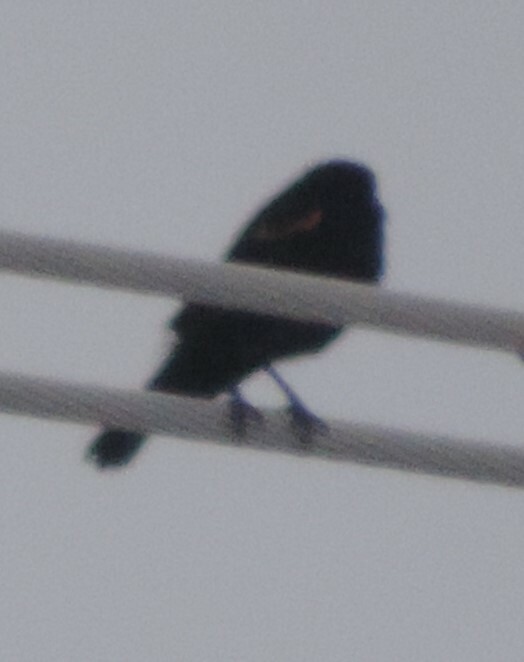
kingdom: Animalia
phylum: Chordata
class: Aves
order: Passeriformes
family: Icteridae
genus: Agelaius
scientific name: Agelaius phoeniceus
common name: Red-winged blackbird
